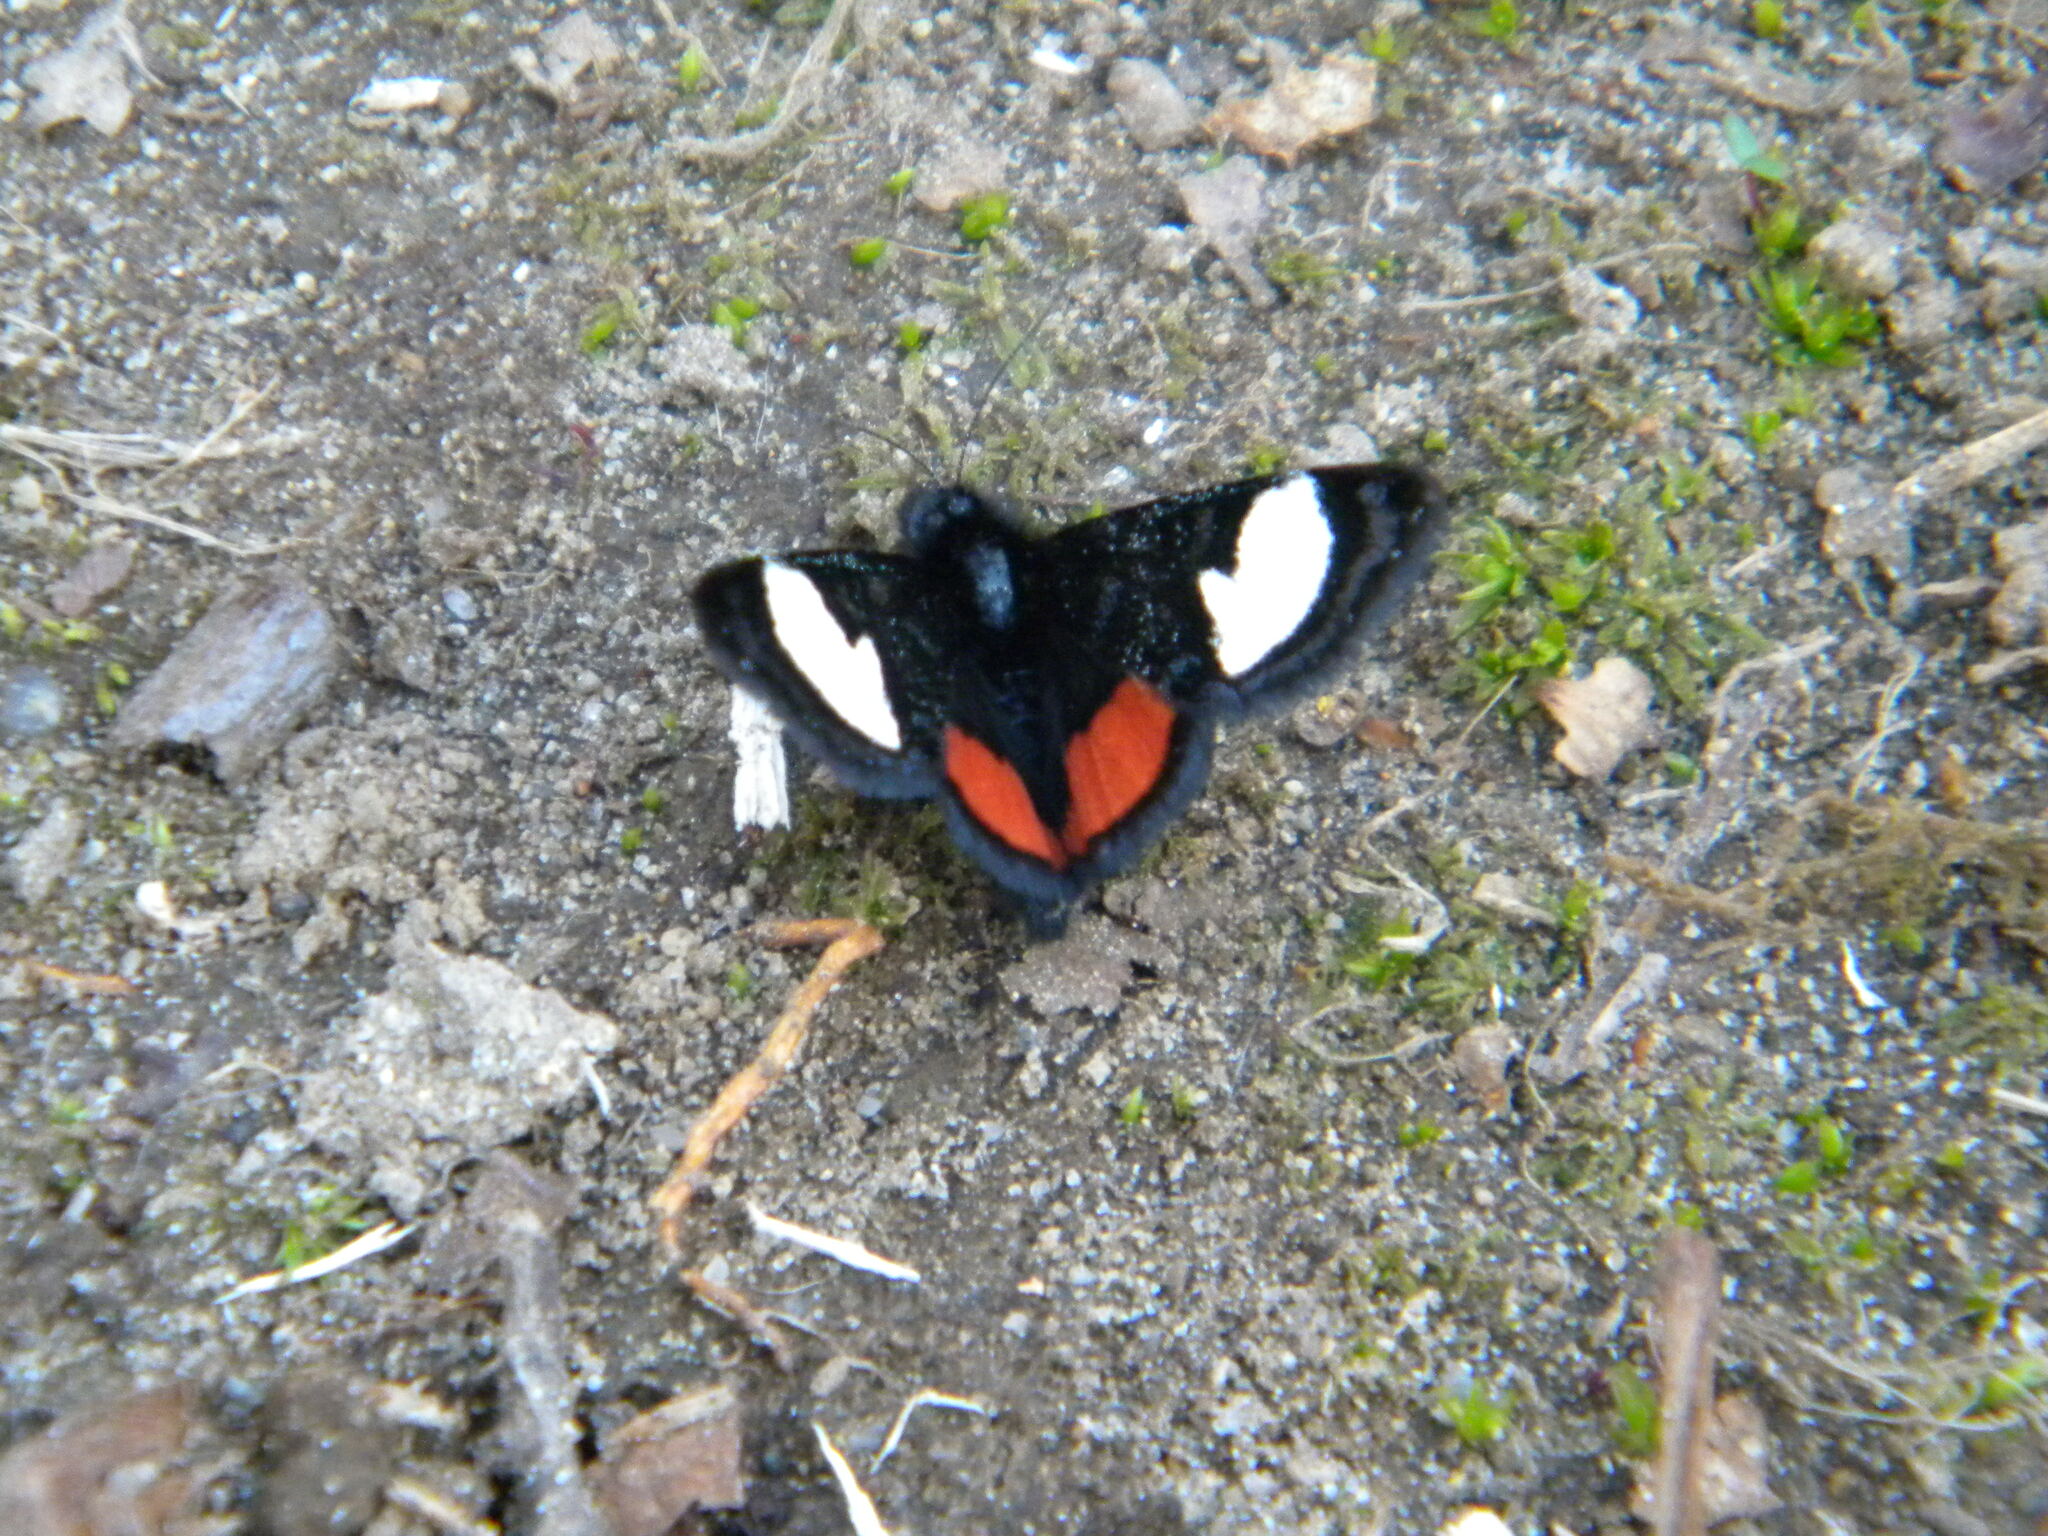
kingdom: Animalia
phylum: Arthropoda
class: Insecta
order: Lepidoptera
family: Noctuidae
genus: Psychomorpha
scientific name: Psychomorpha epimenis
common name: Grapevine epimenis moth
